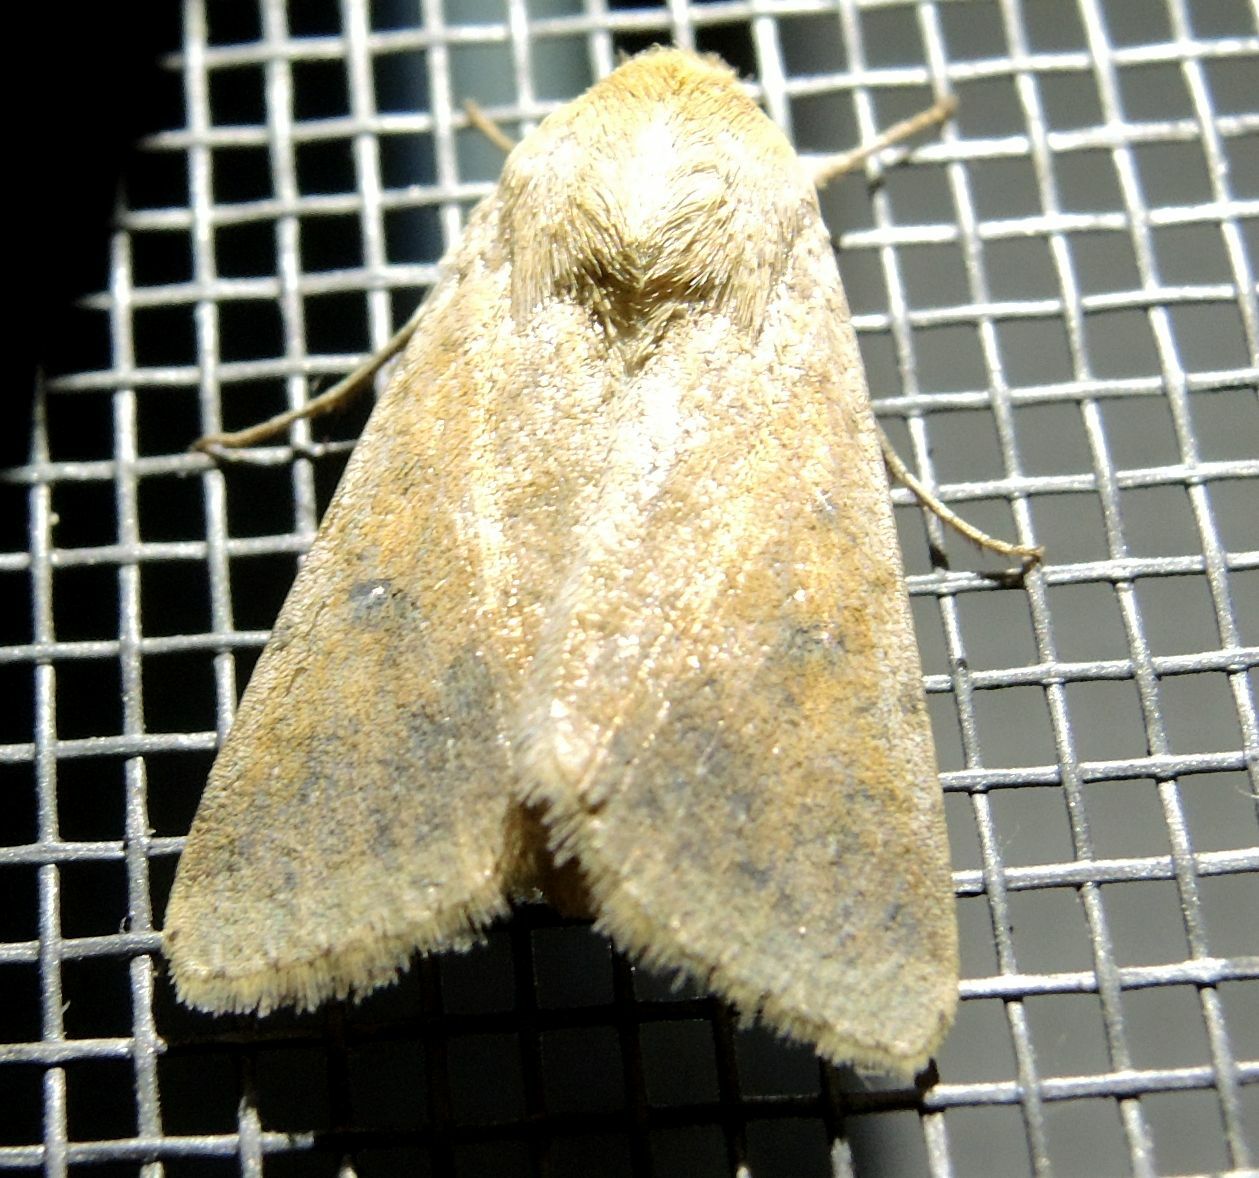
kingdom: Animalia
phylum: Arthropoda
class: Insecta
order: Lepidoptera
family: Noctuidae
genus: Helicoverpa
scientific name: Helicoverpa armigera
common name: Cotton bollworm
